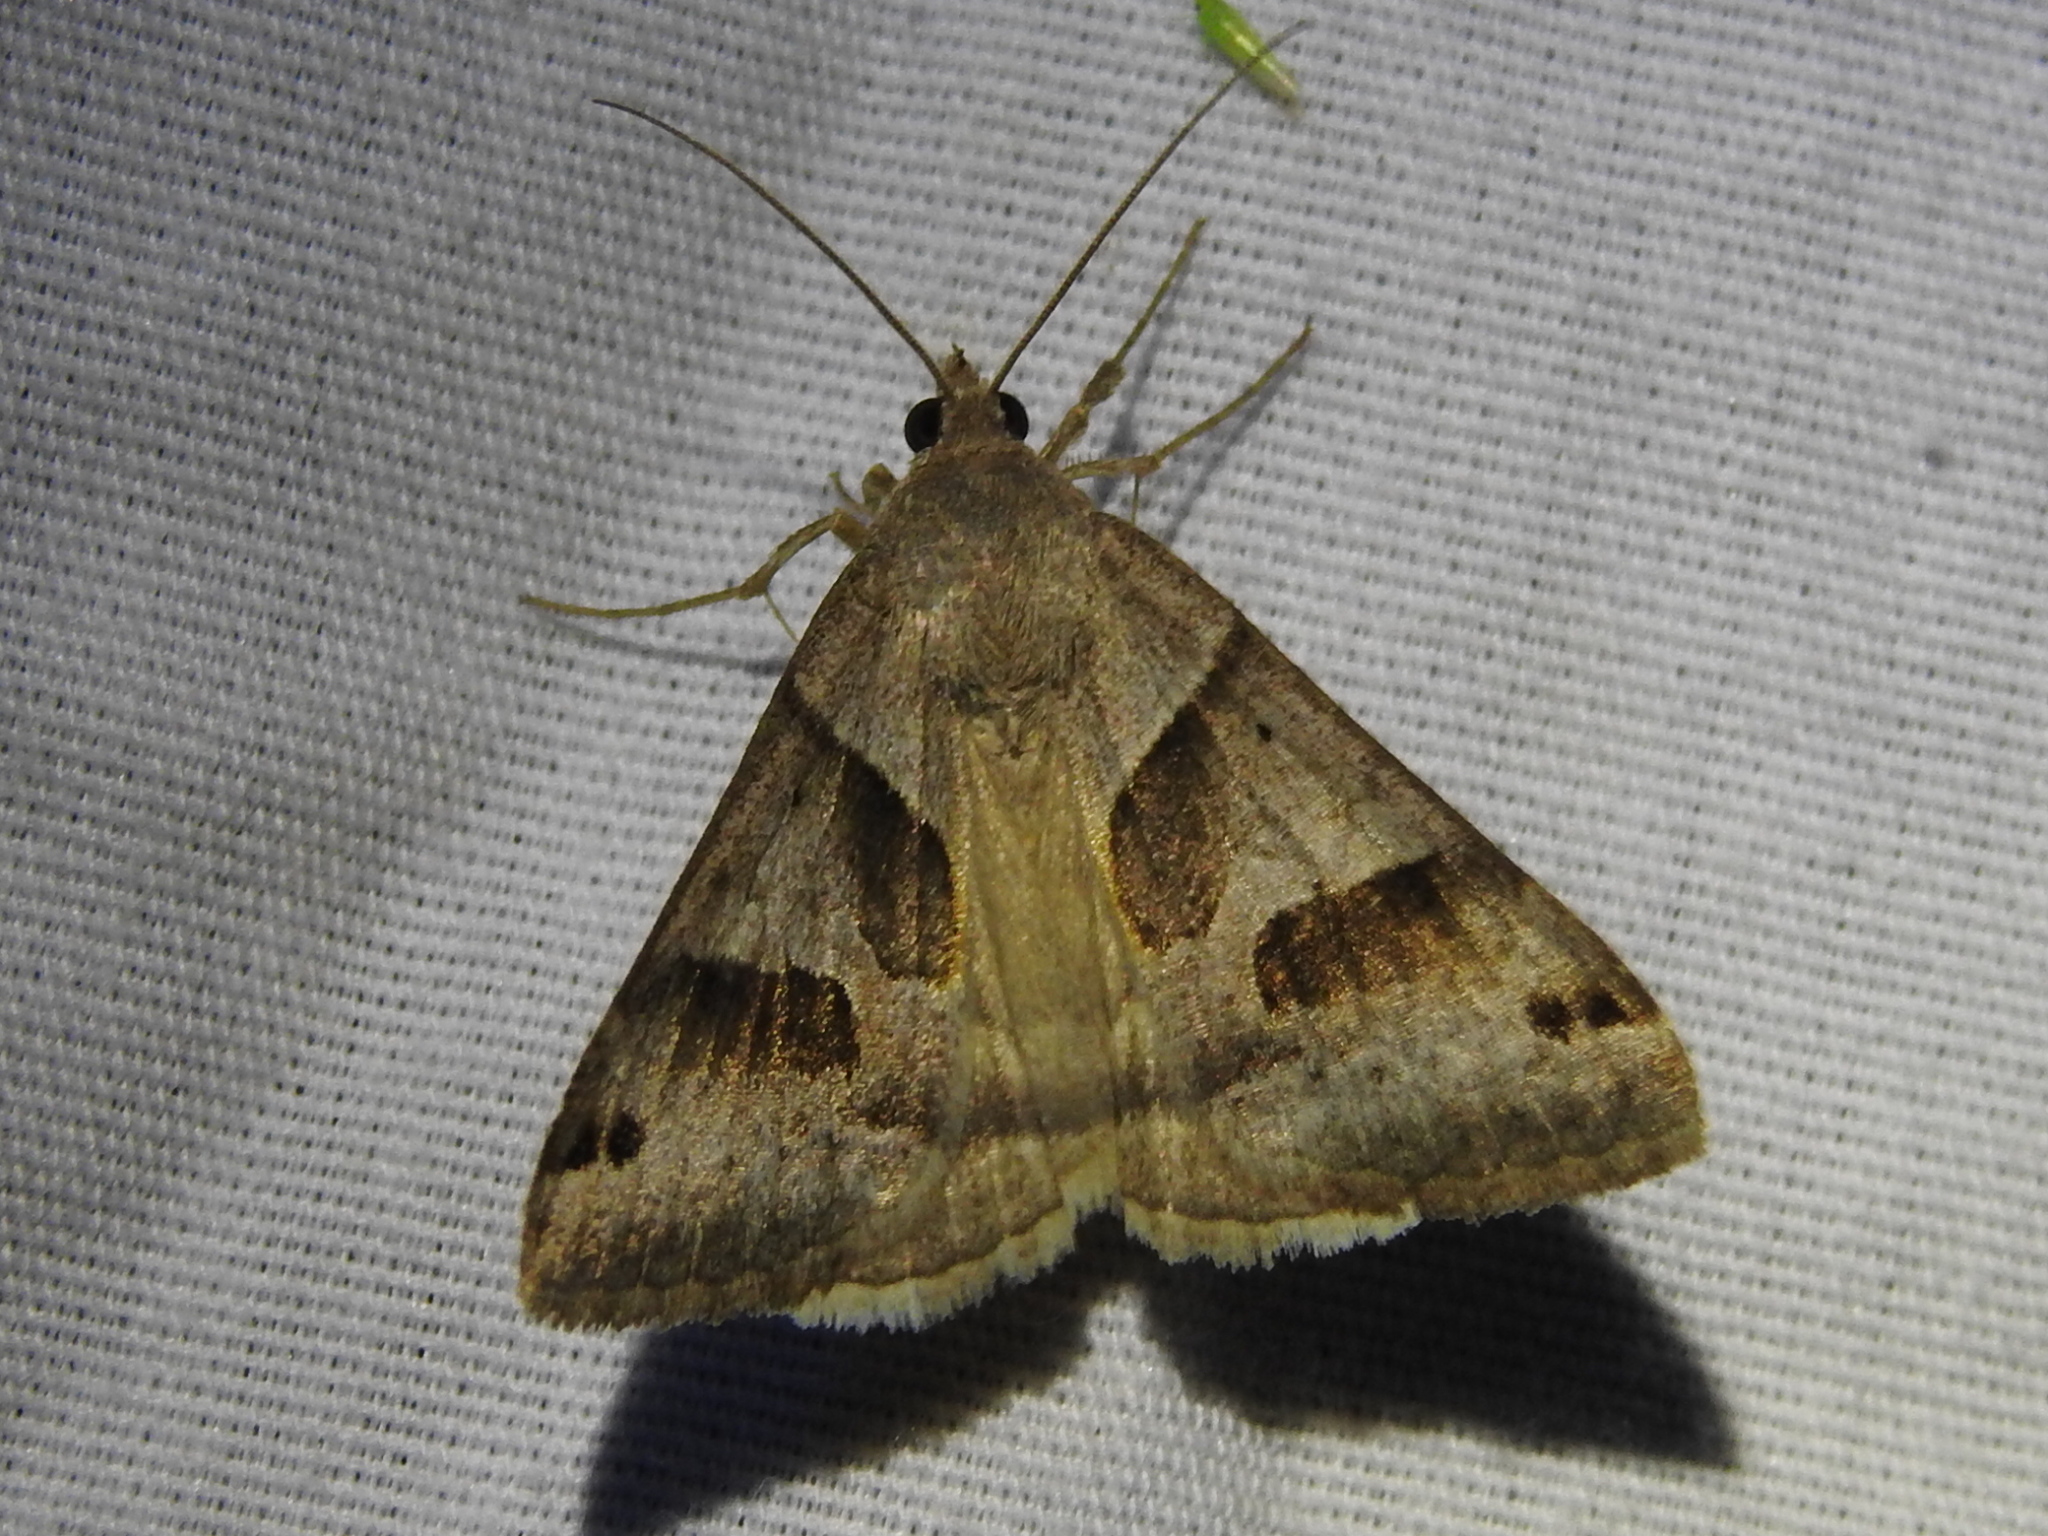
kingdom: Animalia
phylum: Arthropoda
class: Insecta
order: Lepidoptera
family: Erebidae
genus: Caenurgina
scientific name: Caenurgina erechtea
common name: Forage looper moth
